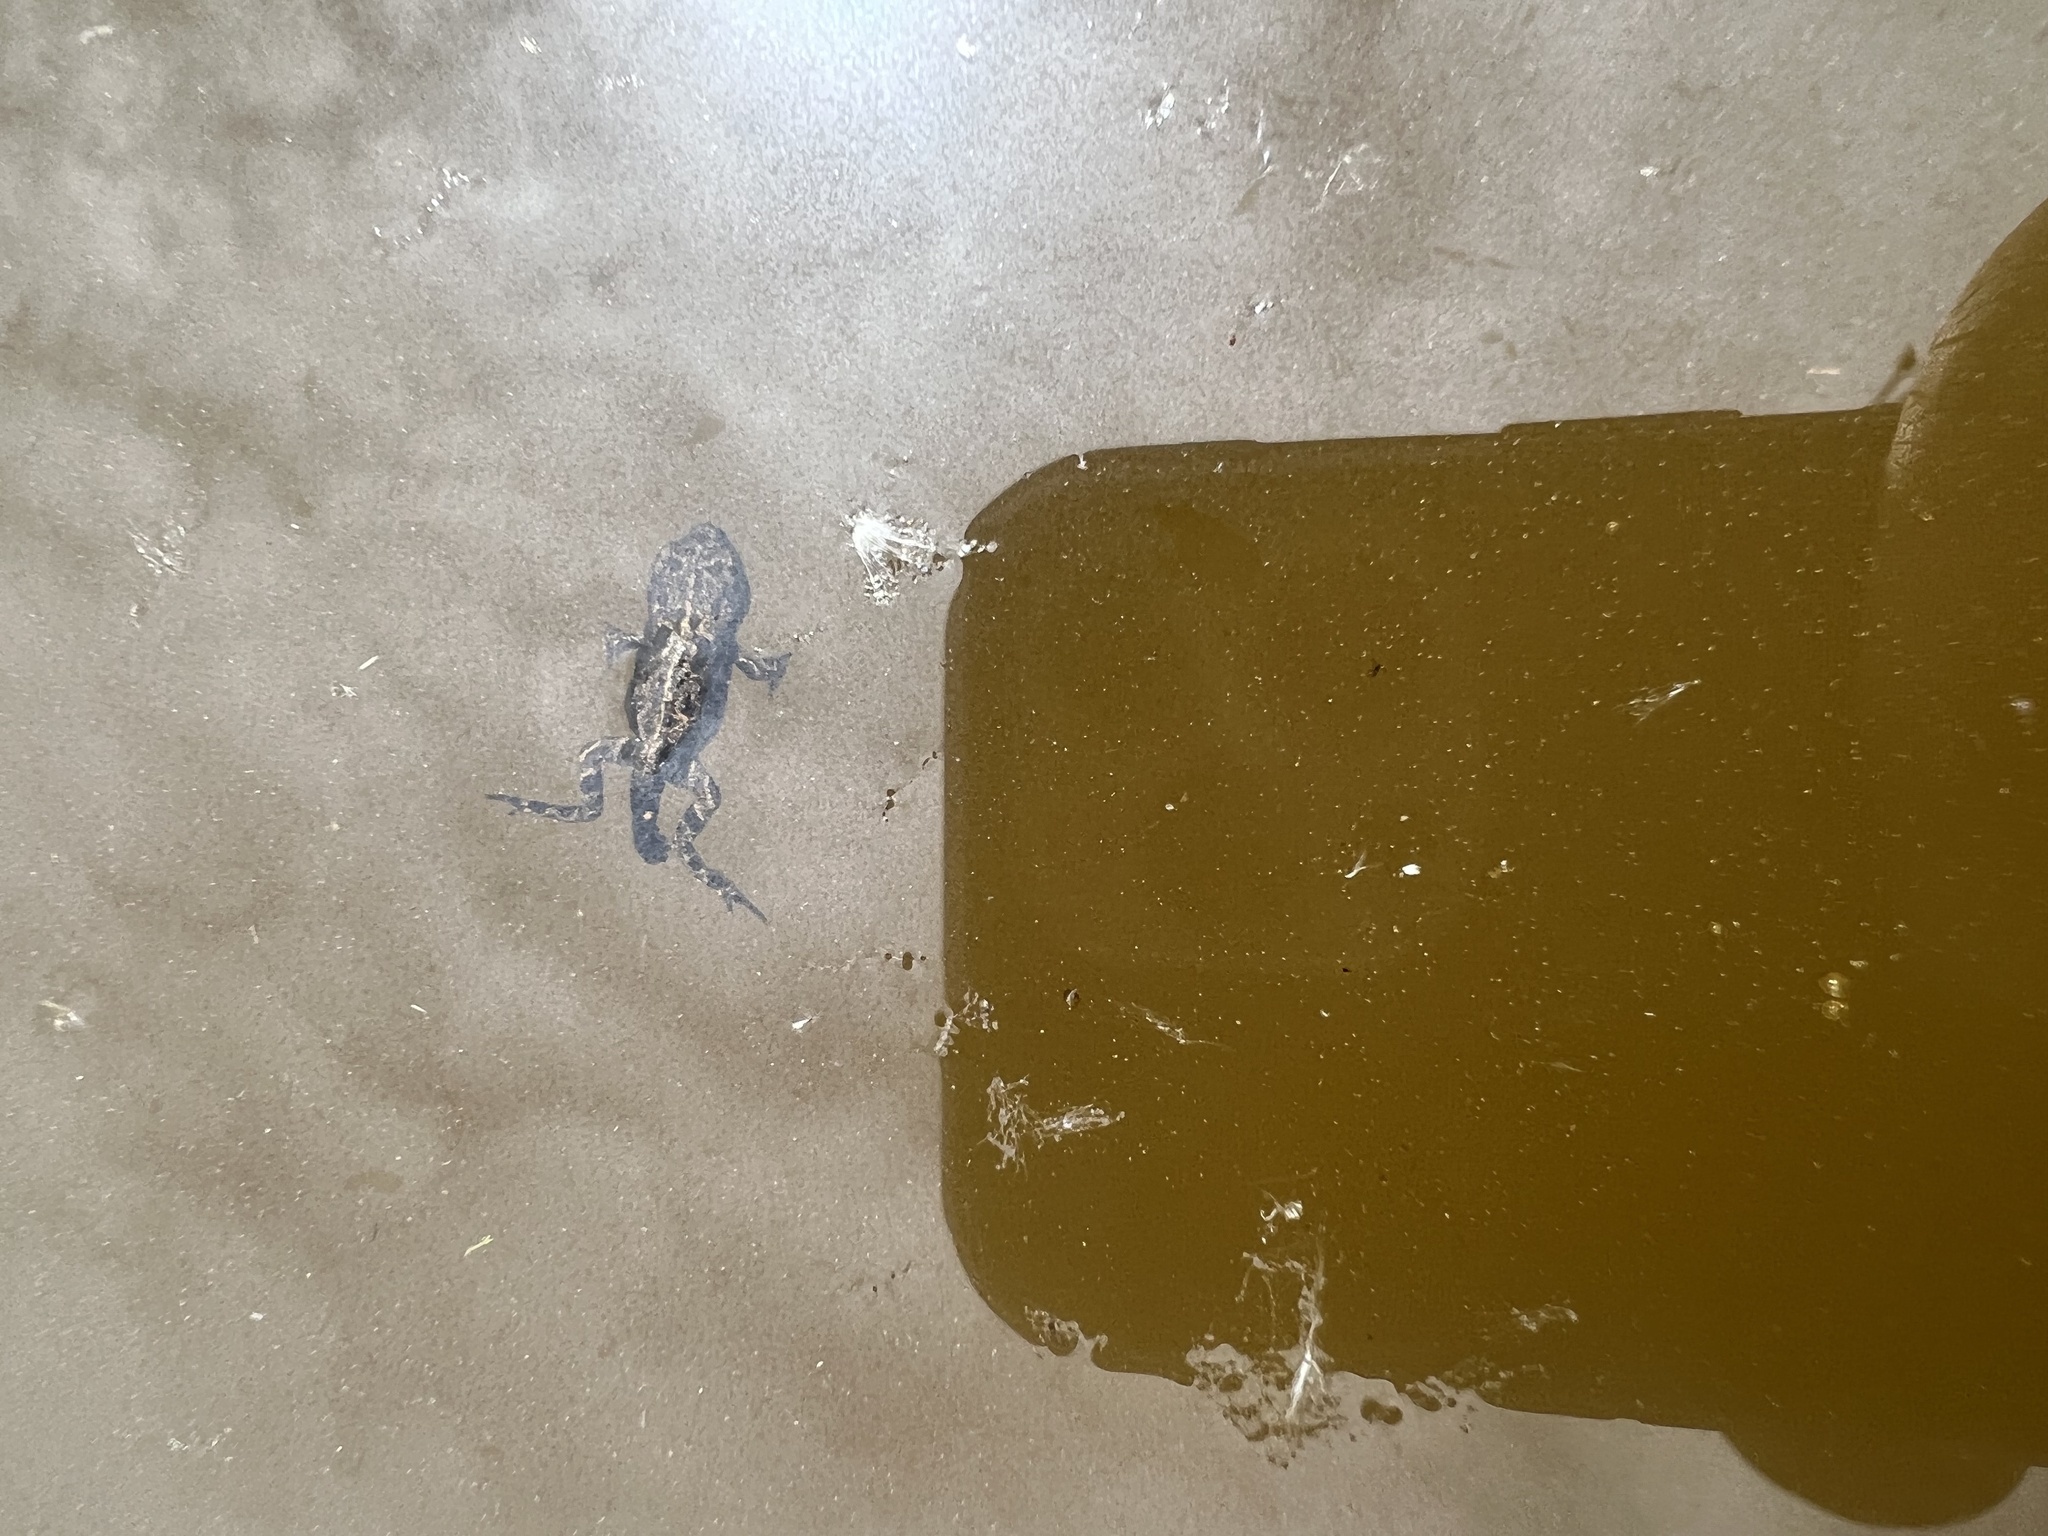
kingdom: Animalia
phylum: Chordata
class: Amphibia
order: Anura
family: Bufonidae
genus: Anaxyrus
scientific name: Anaxyrus boreas
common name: Western toad
